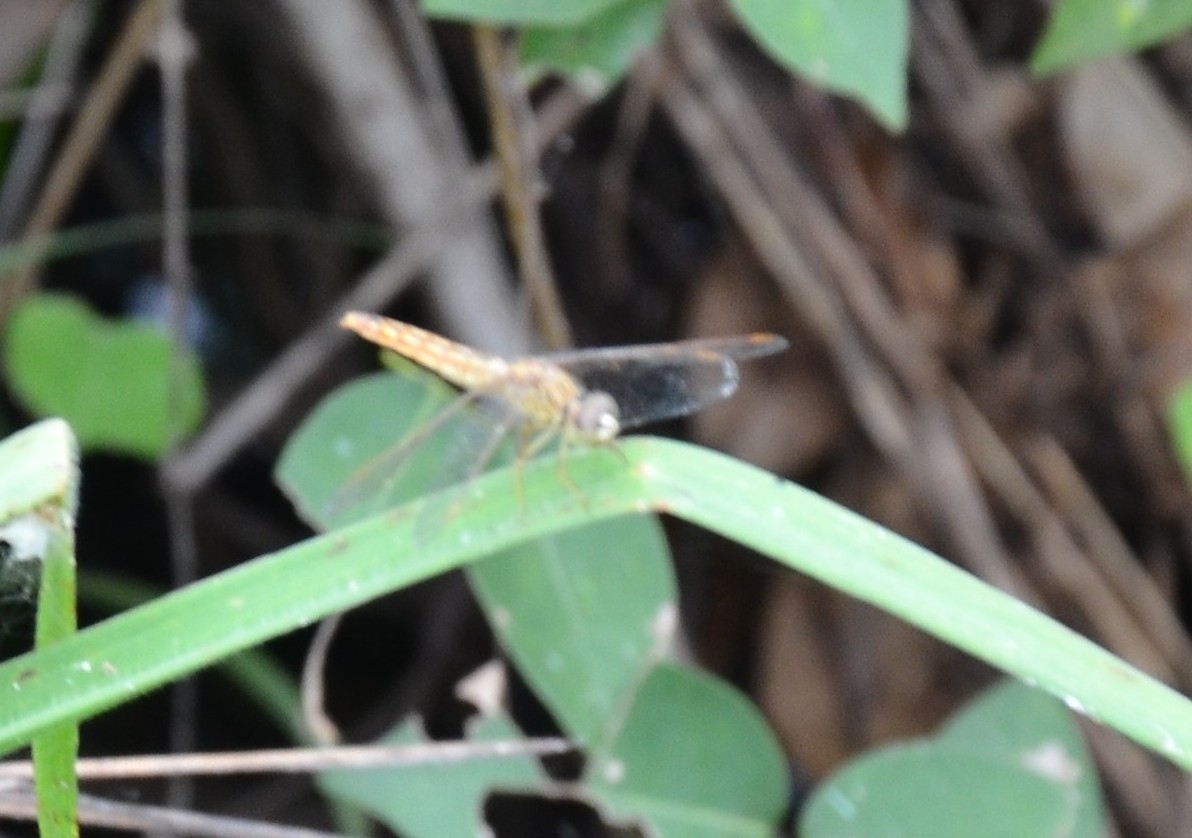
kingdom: Animalia
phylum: Arthropoda
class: Insecta
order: Odonata
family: Libellulidae
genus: Brachythemis
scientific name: Brachythemis contaminata
